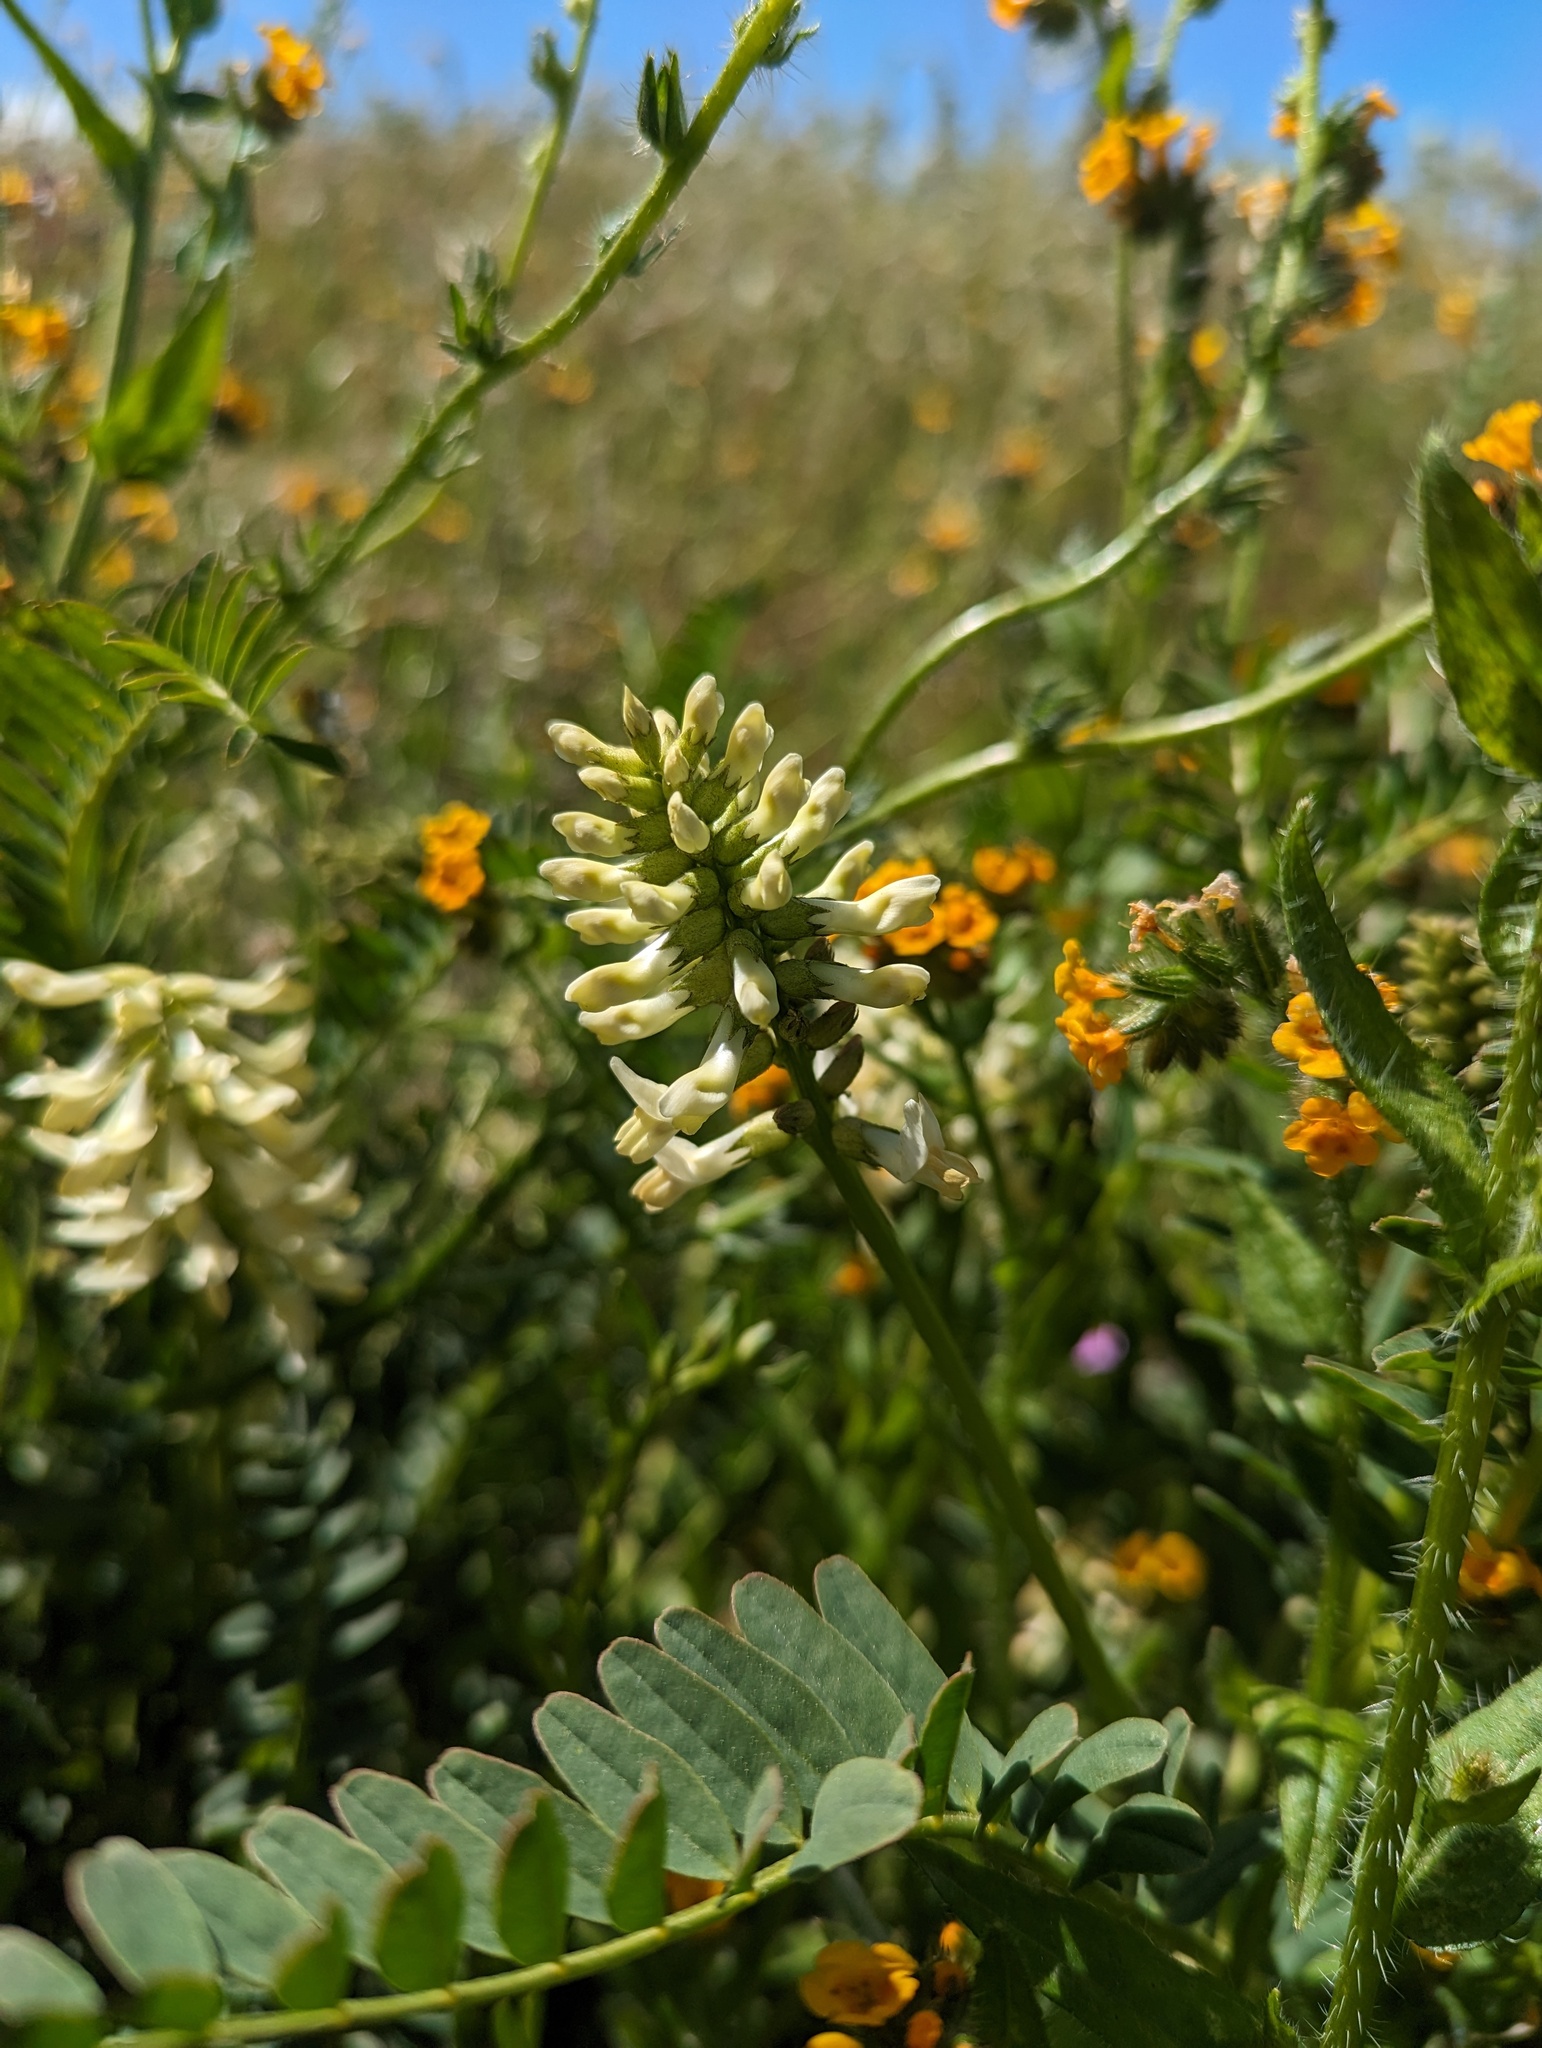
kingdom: Plantae
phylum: Tracheophyta
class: Magnoliopsida
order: Fabales
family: Fabaceae
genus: Astragalus
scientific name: Astragalus pomonensis
